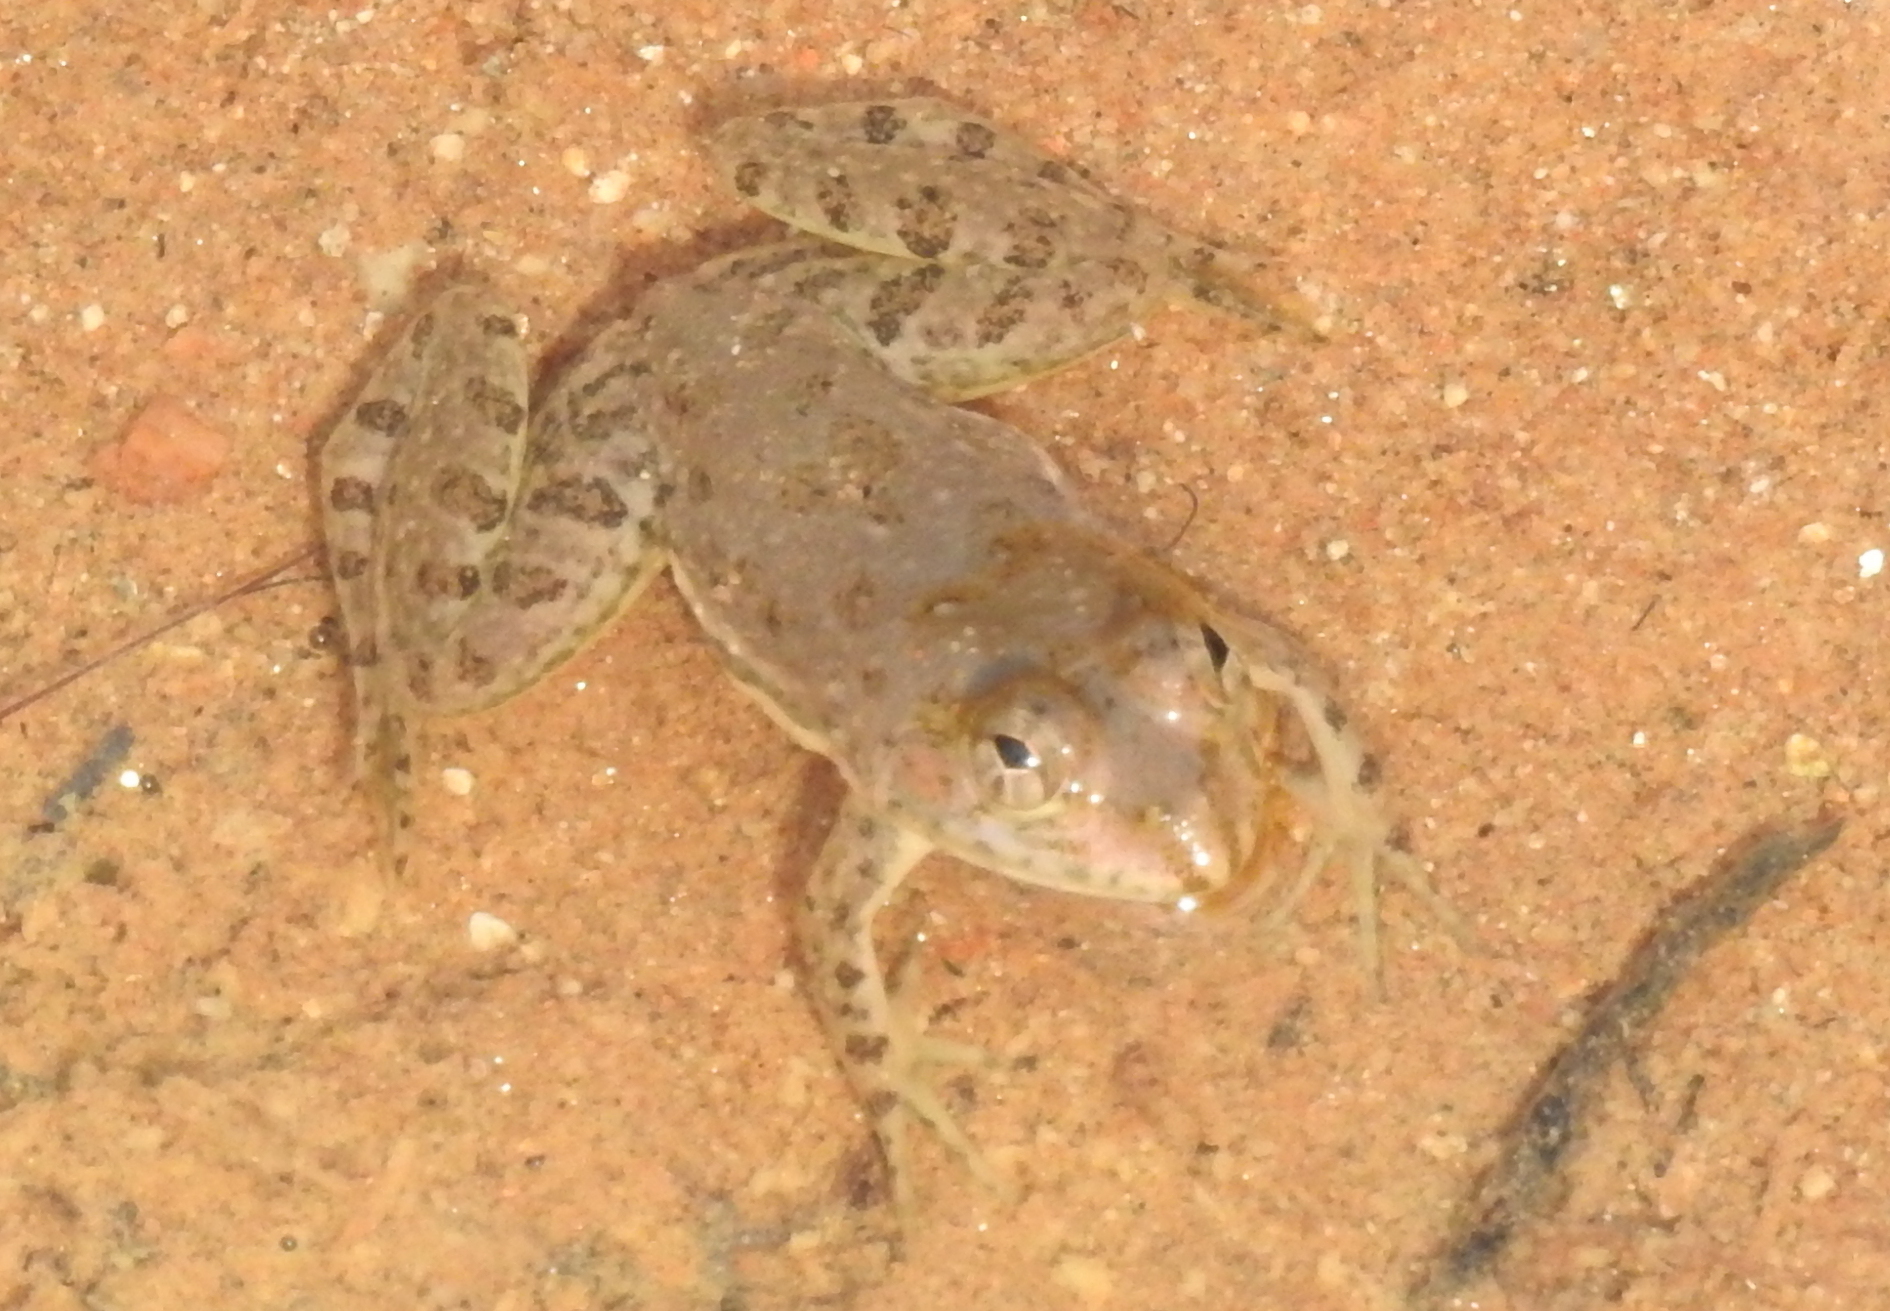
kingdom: Animalia
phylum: Chordata
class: Amphibia
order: Anura
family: Dicroglossidae
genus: Euphlyctis
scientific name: Euphlyctis cyanophlyctis
